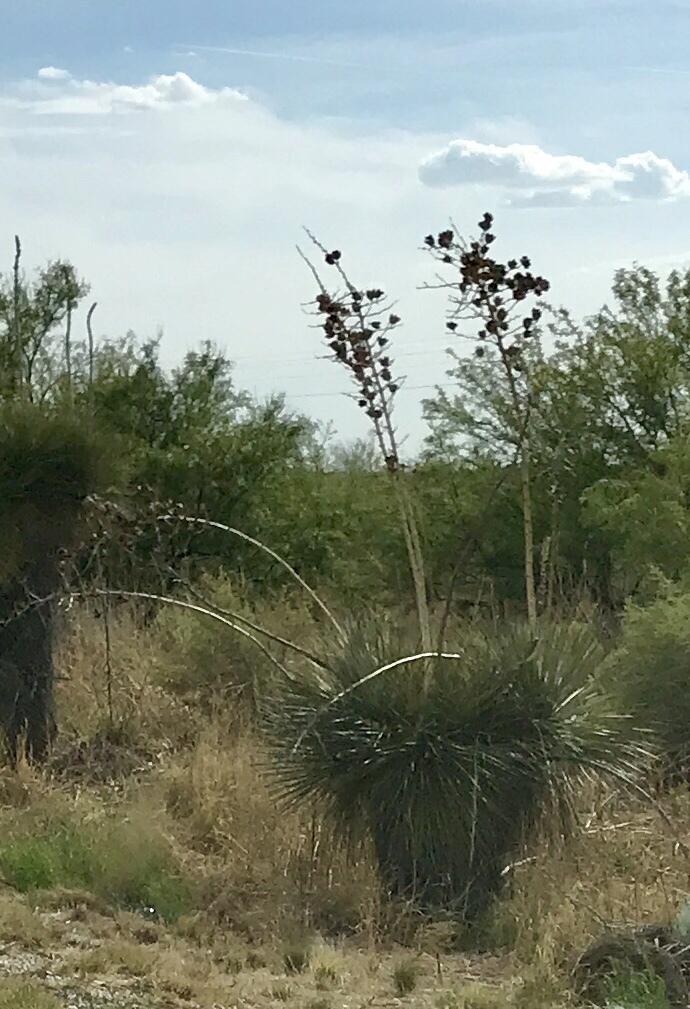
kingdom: Plantae
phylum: Tracheophyta
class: Liliopsida
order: Asparagales
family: Asparagaceae
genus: Yucca
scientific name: Yucca elata
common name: Palmella
